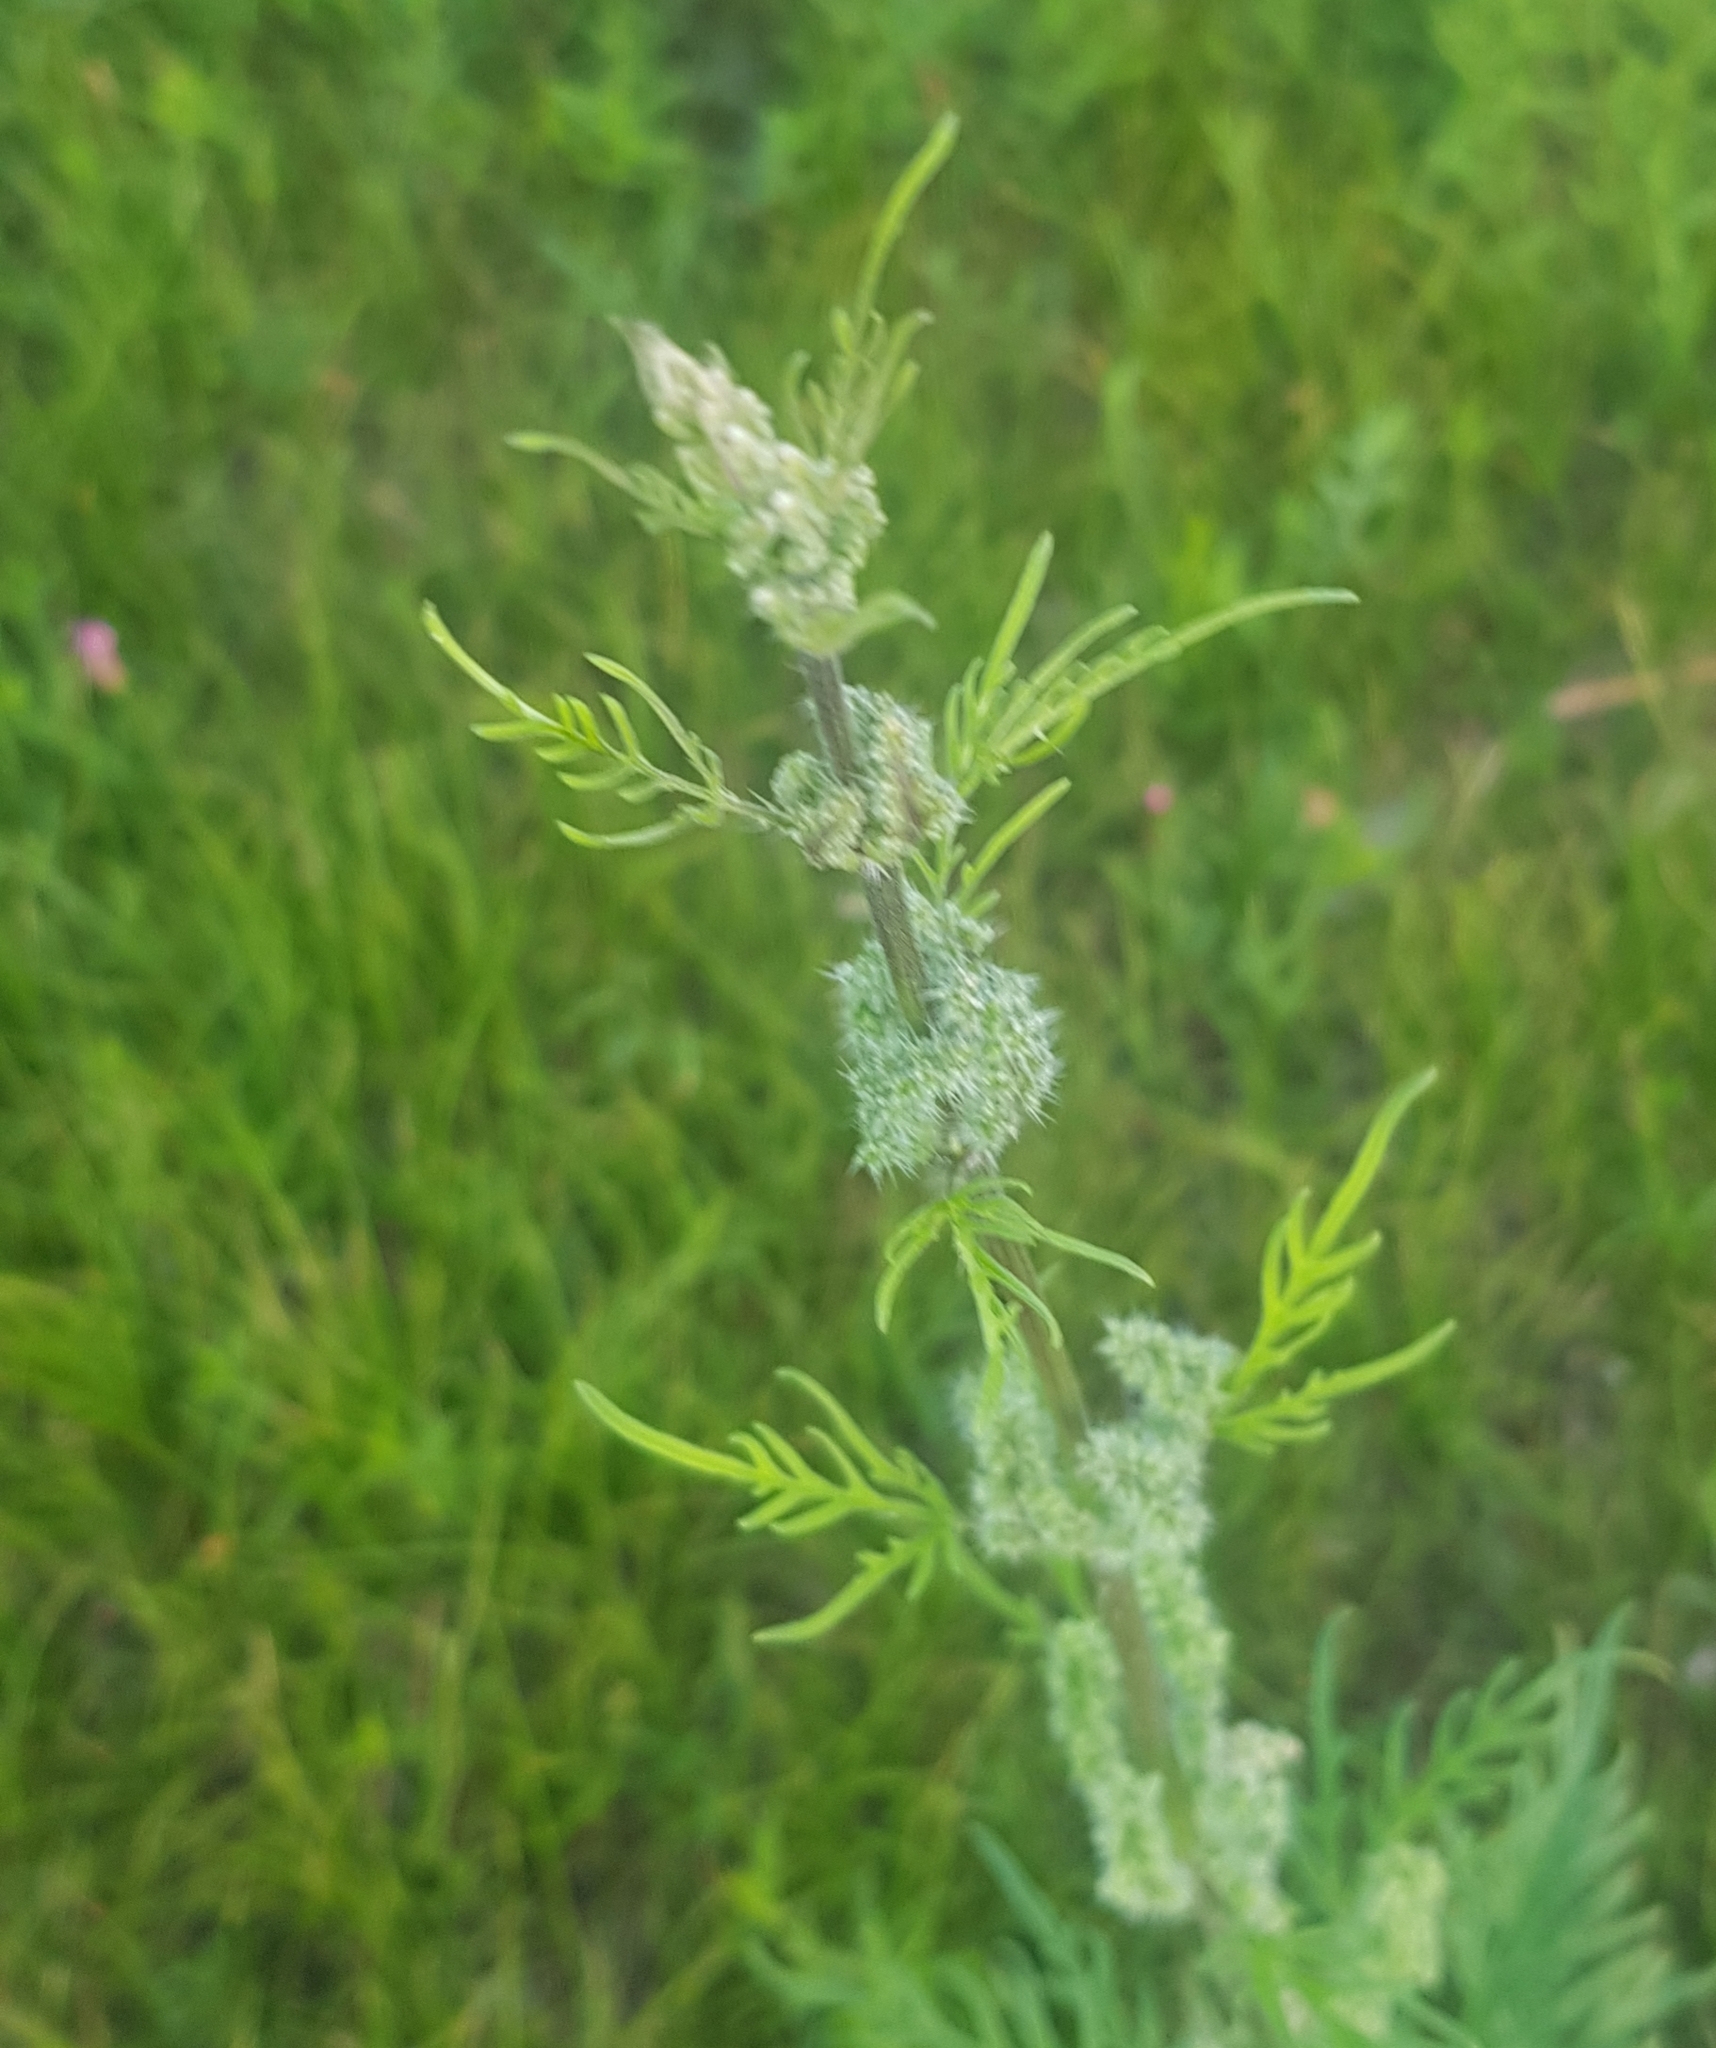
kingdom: Plantae
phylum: Tracheophyta
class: Magnoliopsida
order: Rosales
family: Urticaceae
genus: Urtica
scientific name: Urtica cannabina
